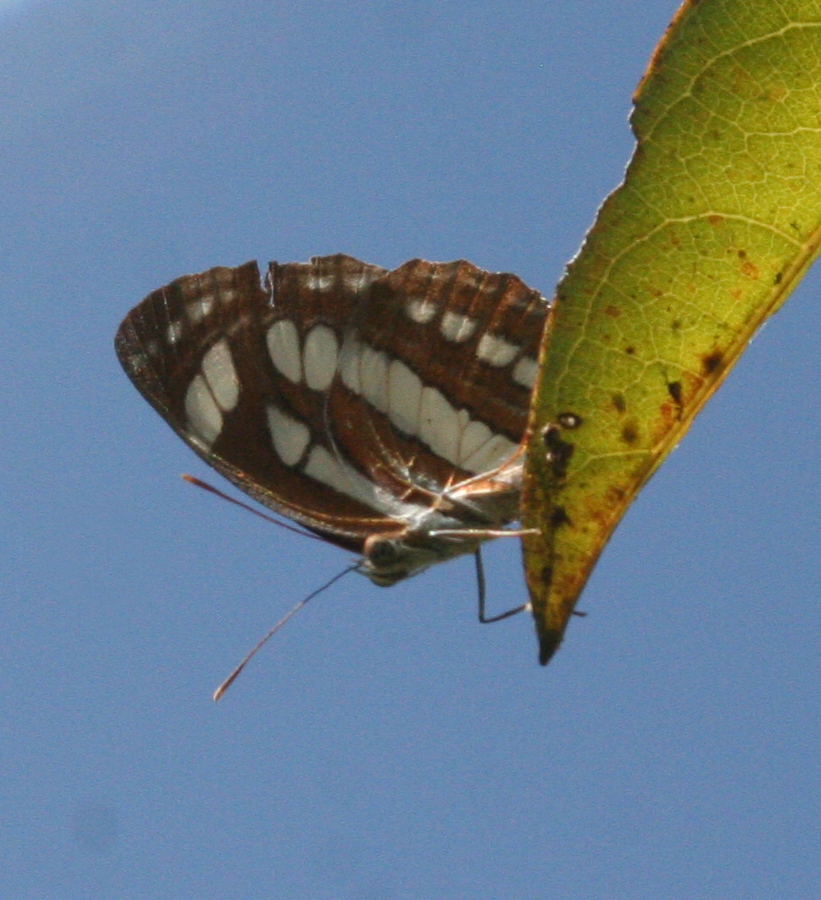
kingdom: Animalia
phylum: Arthropoda
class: Insecta
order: Lepidoptera
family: Nymphalidae
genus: Neptis
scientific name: Neptis hylas
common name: Common sailer
